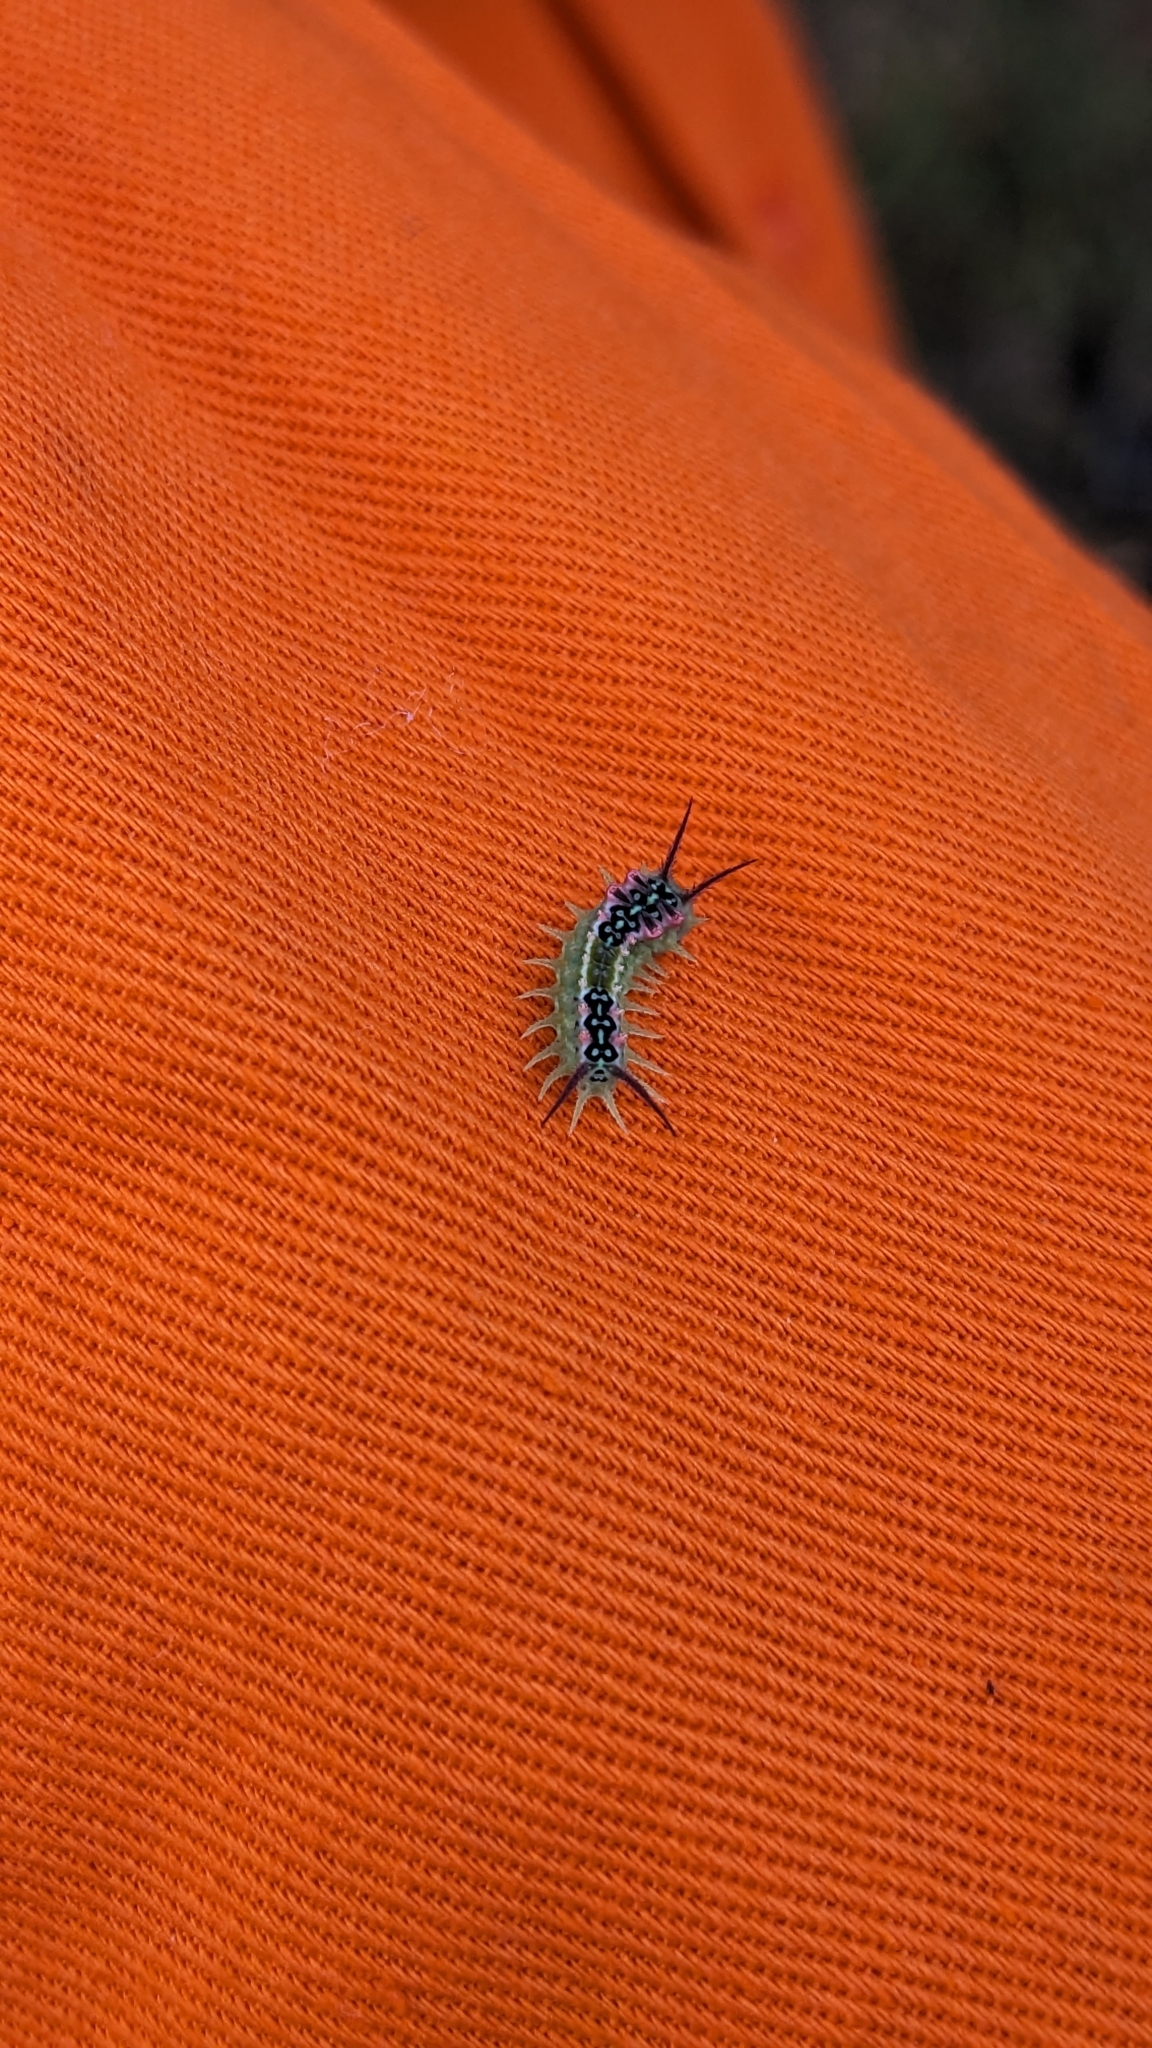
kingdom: Animalia
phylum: Arthropoda
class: Insecta
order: Lepidoptera
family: Limacodidae
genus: Doratifera
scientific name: Doratifera quadriguttata
